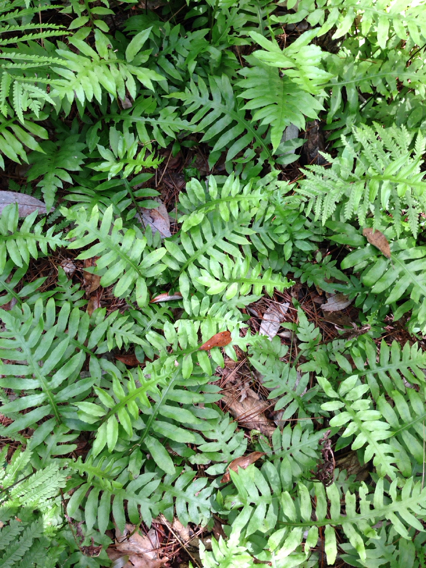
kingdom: Plantae
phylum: Tracheophyta
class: Polypodiopsida
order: Polypodiales
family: Blechnaceae
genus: Lorinseria
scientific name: Lorinseria areolata
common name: Dwarf chain fern
